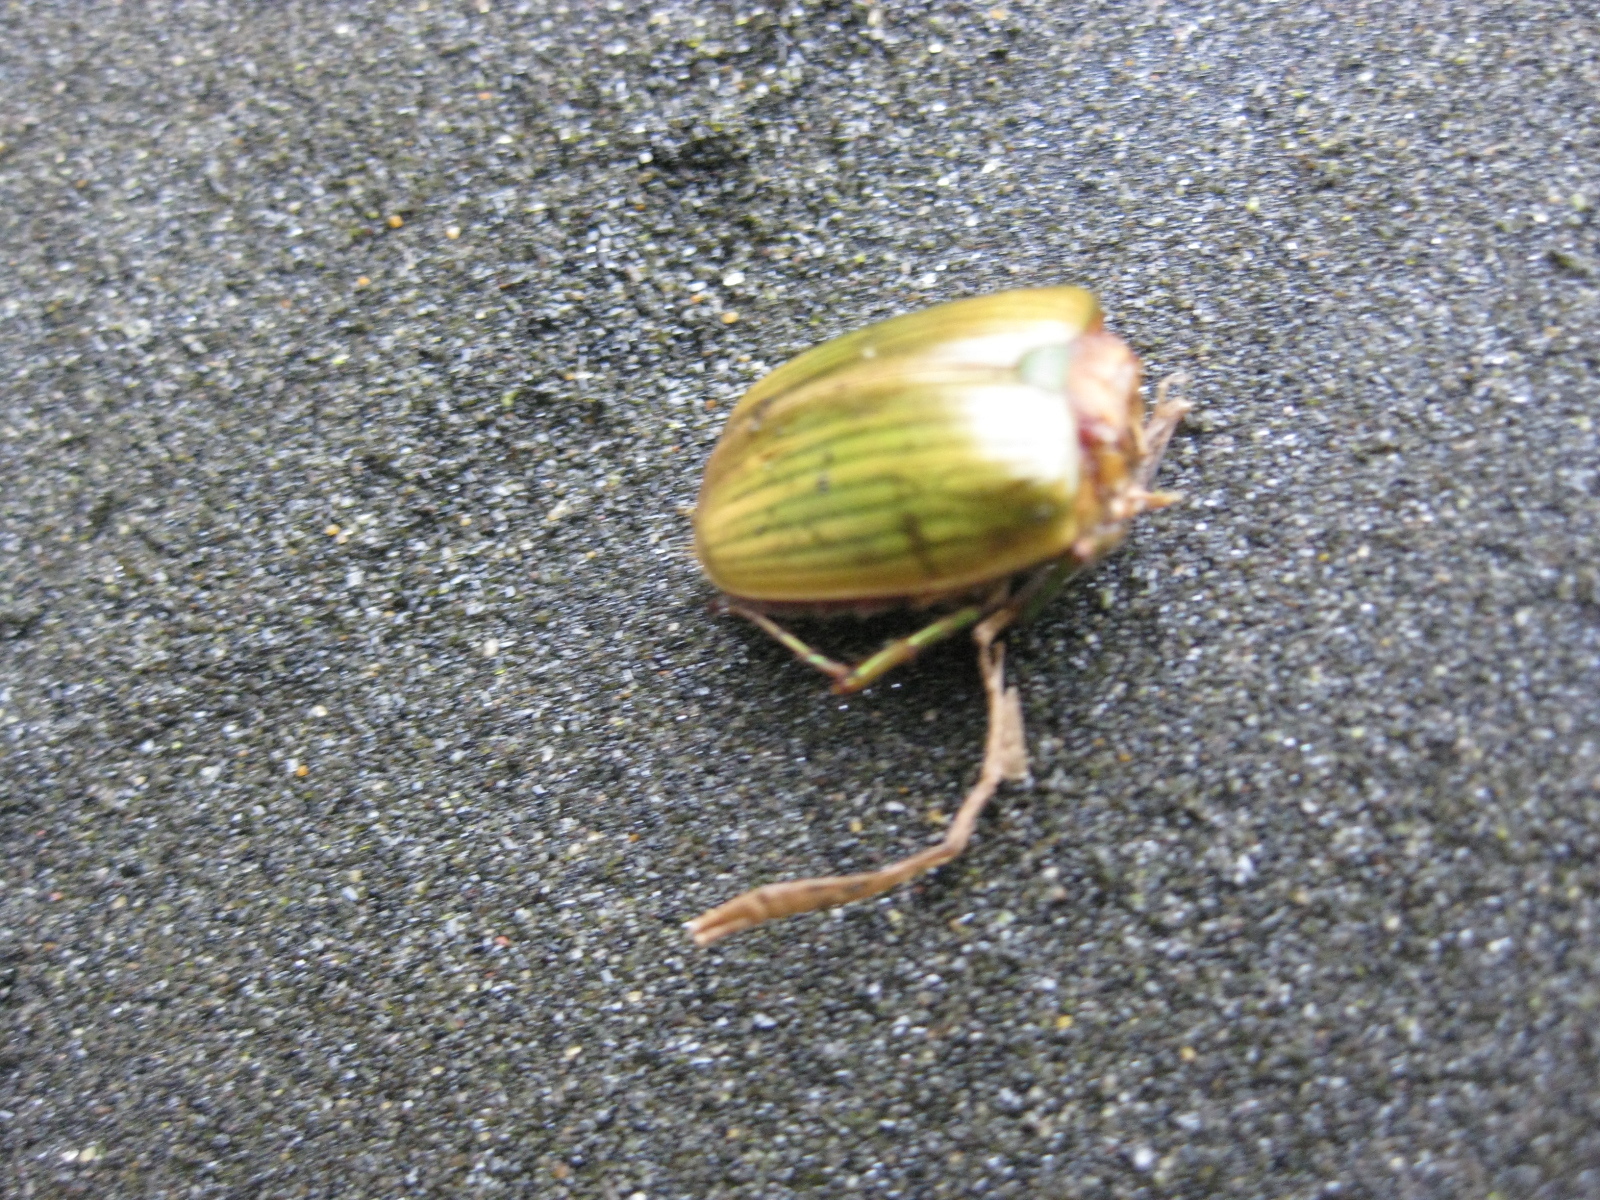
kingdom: Animalia
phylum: Arthropoda
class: Insecta
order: Coleoptera
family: Scarabaeidae
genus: Stethaspis
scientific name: Stethaspis longicornis
